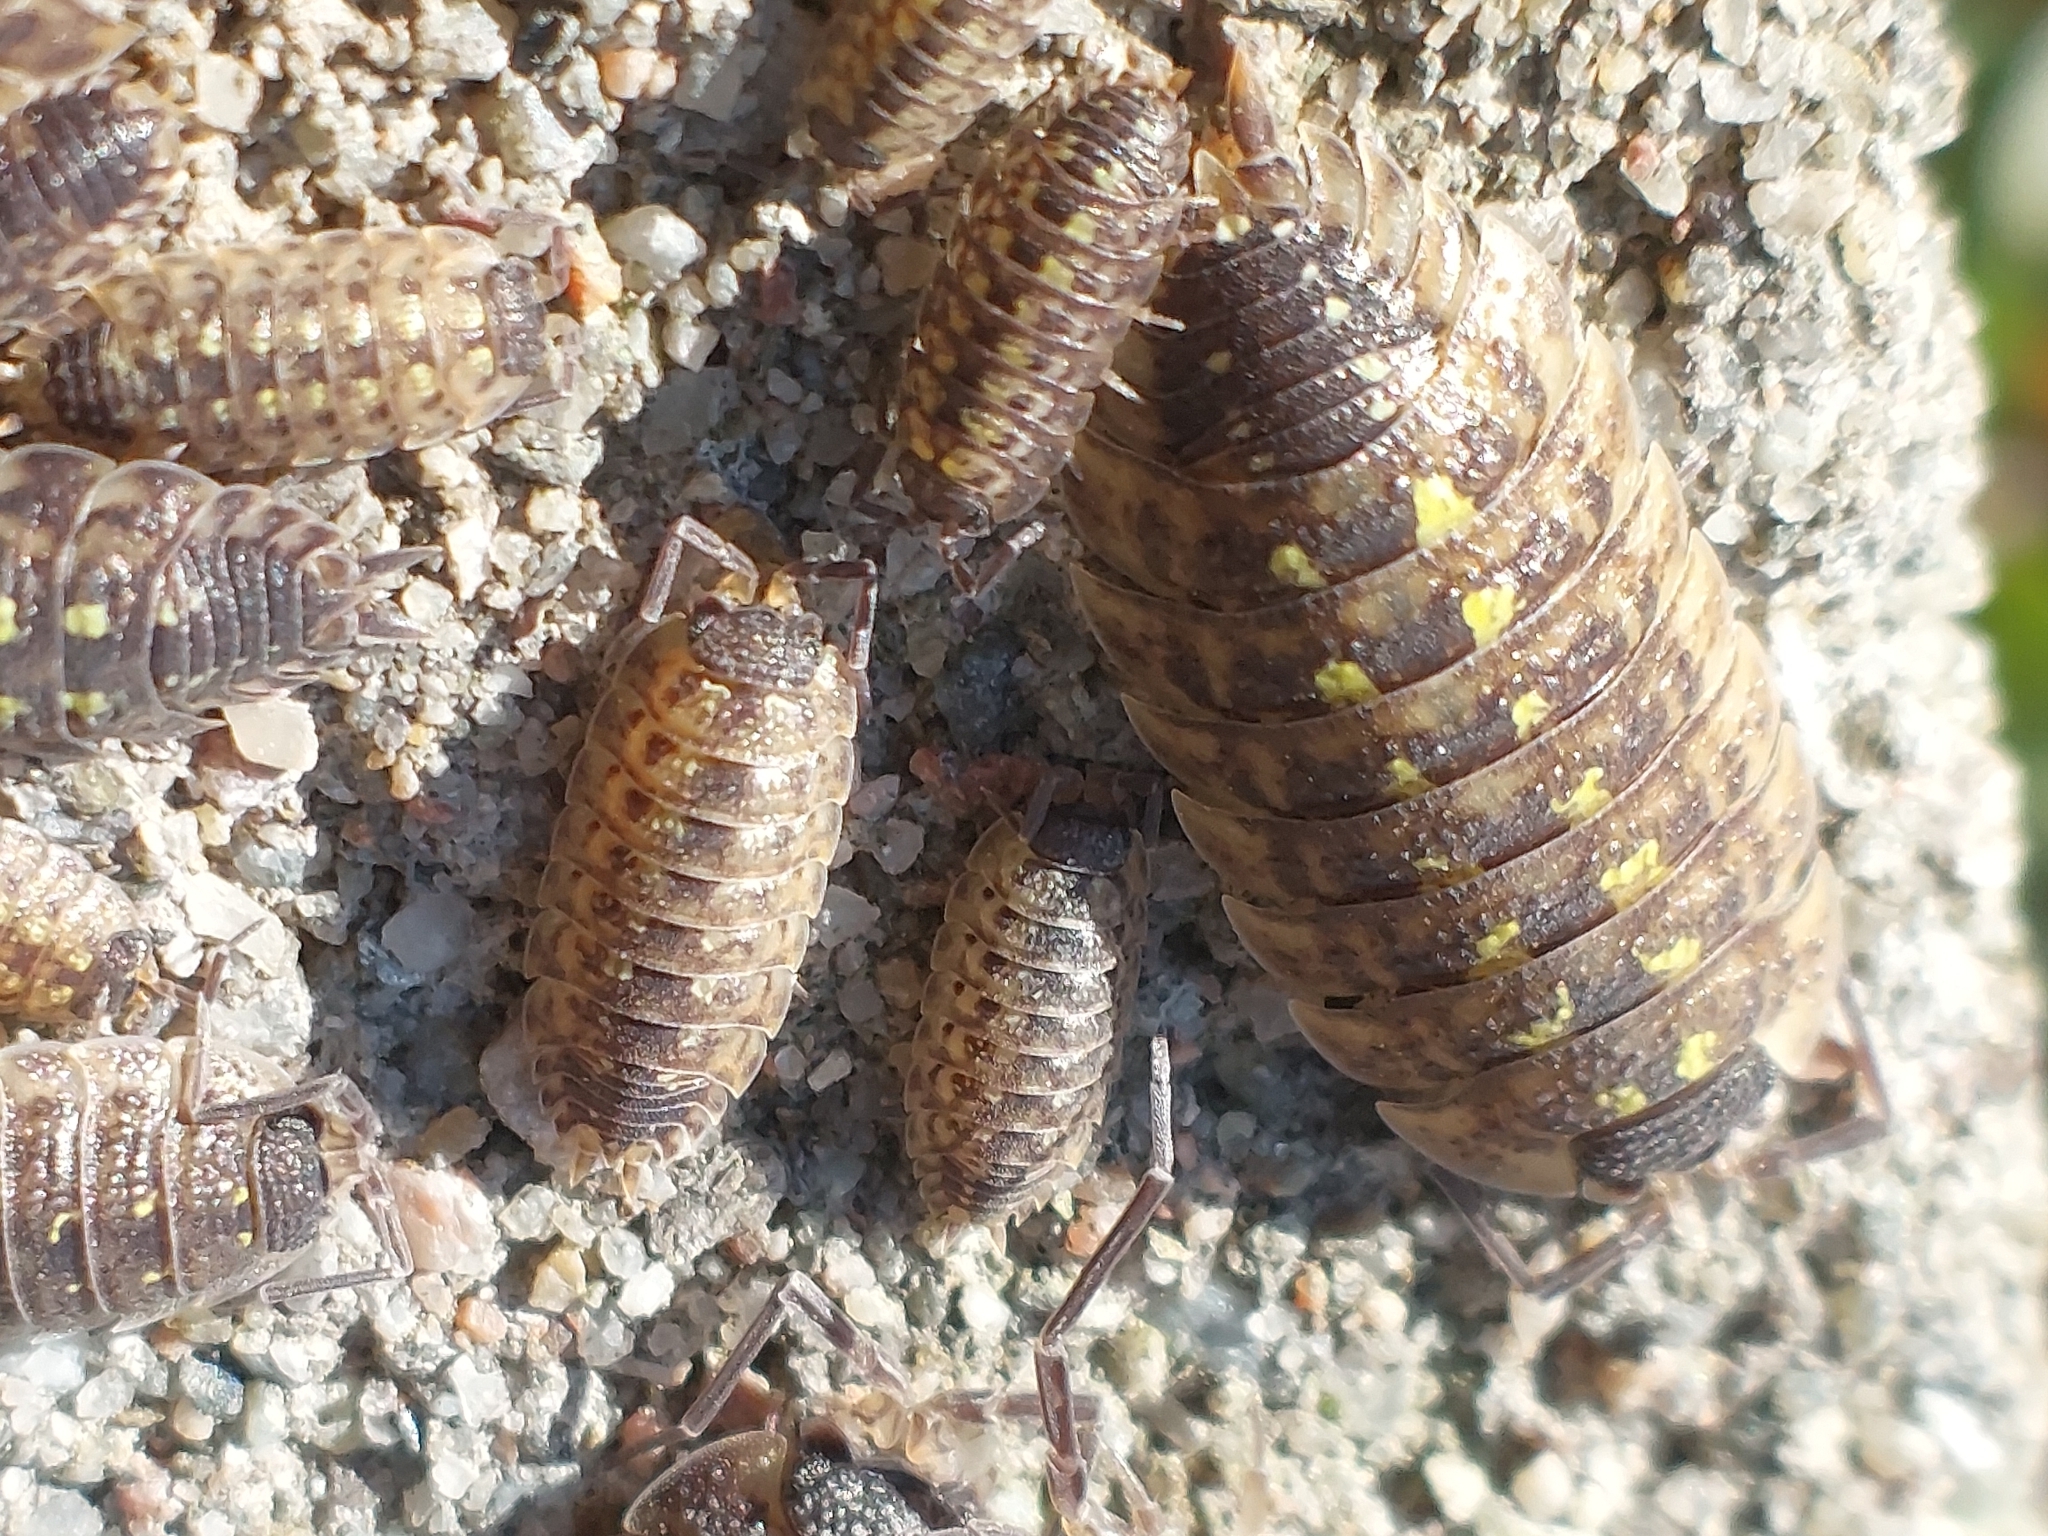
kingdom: Animalia
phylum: Arthropoda
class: Malacostraca
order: Isopoda
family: Porcellionidae
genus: Porcellio
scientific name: Porcellio spinicornis
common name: Painted woodlouse
